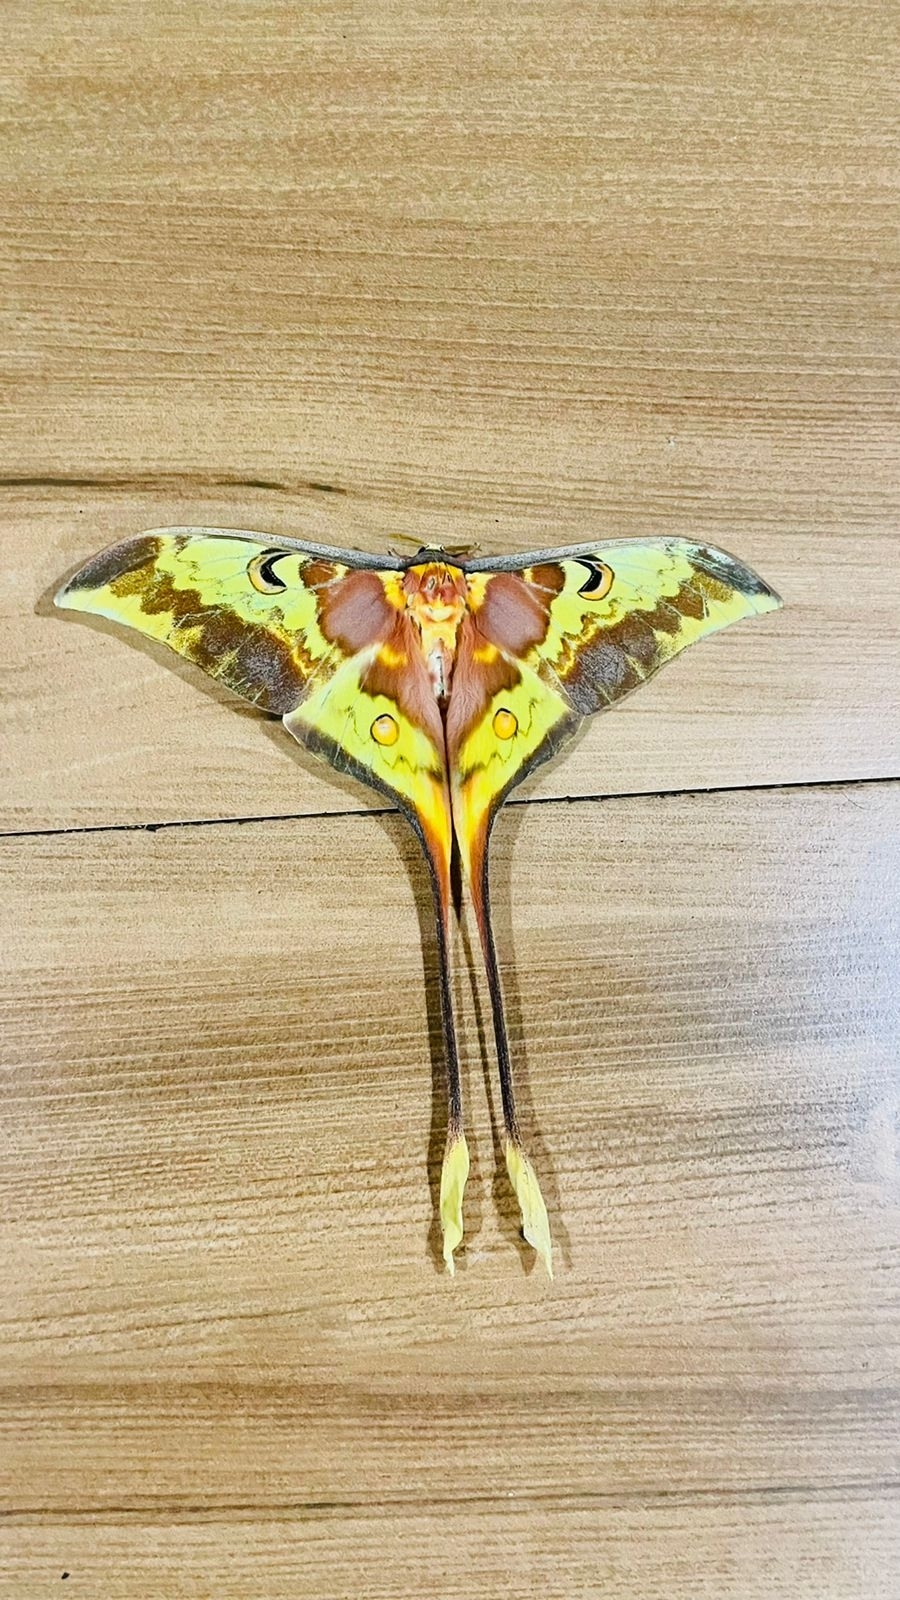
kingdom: Animalia
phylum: Arthropoda
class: Insecta
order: Lepidoptera
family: Saturniidae
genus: Actias
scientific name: Actias
